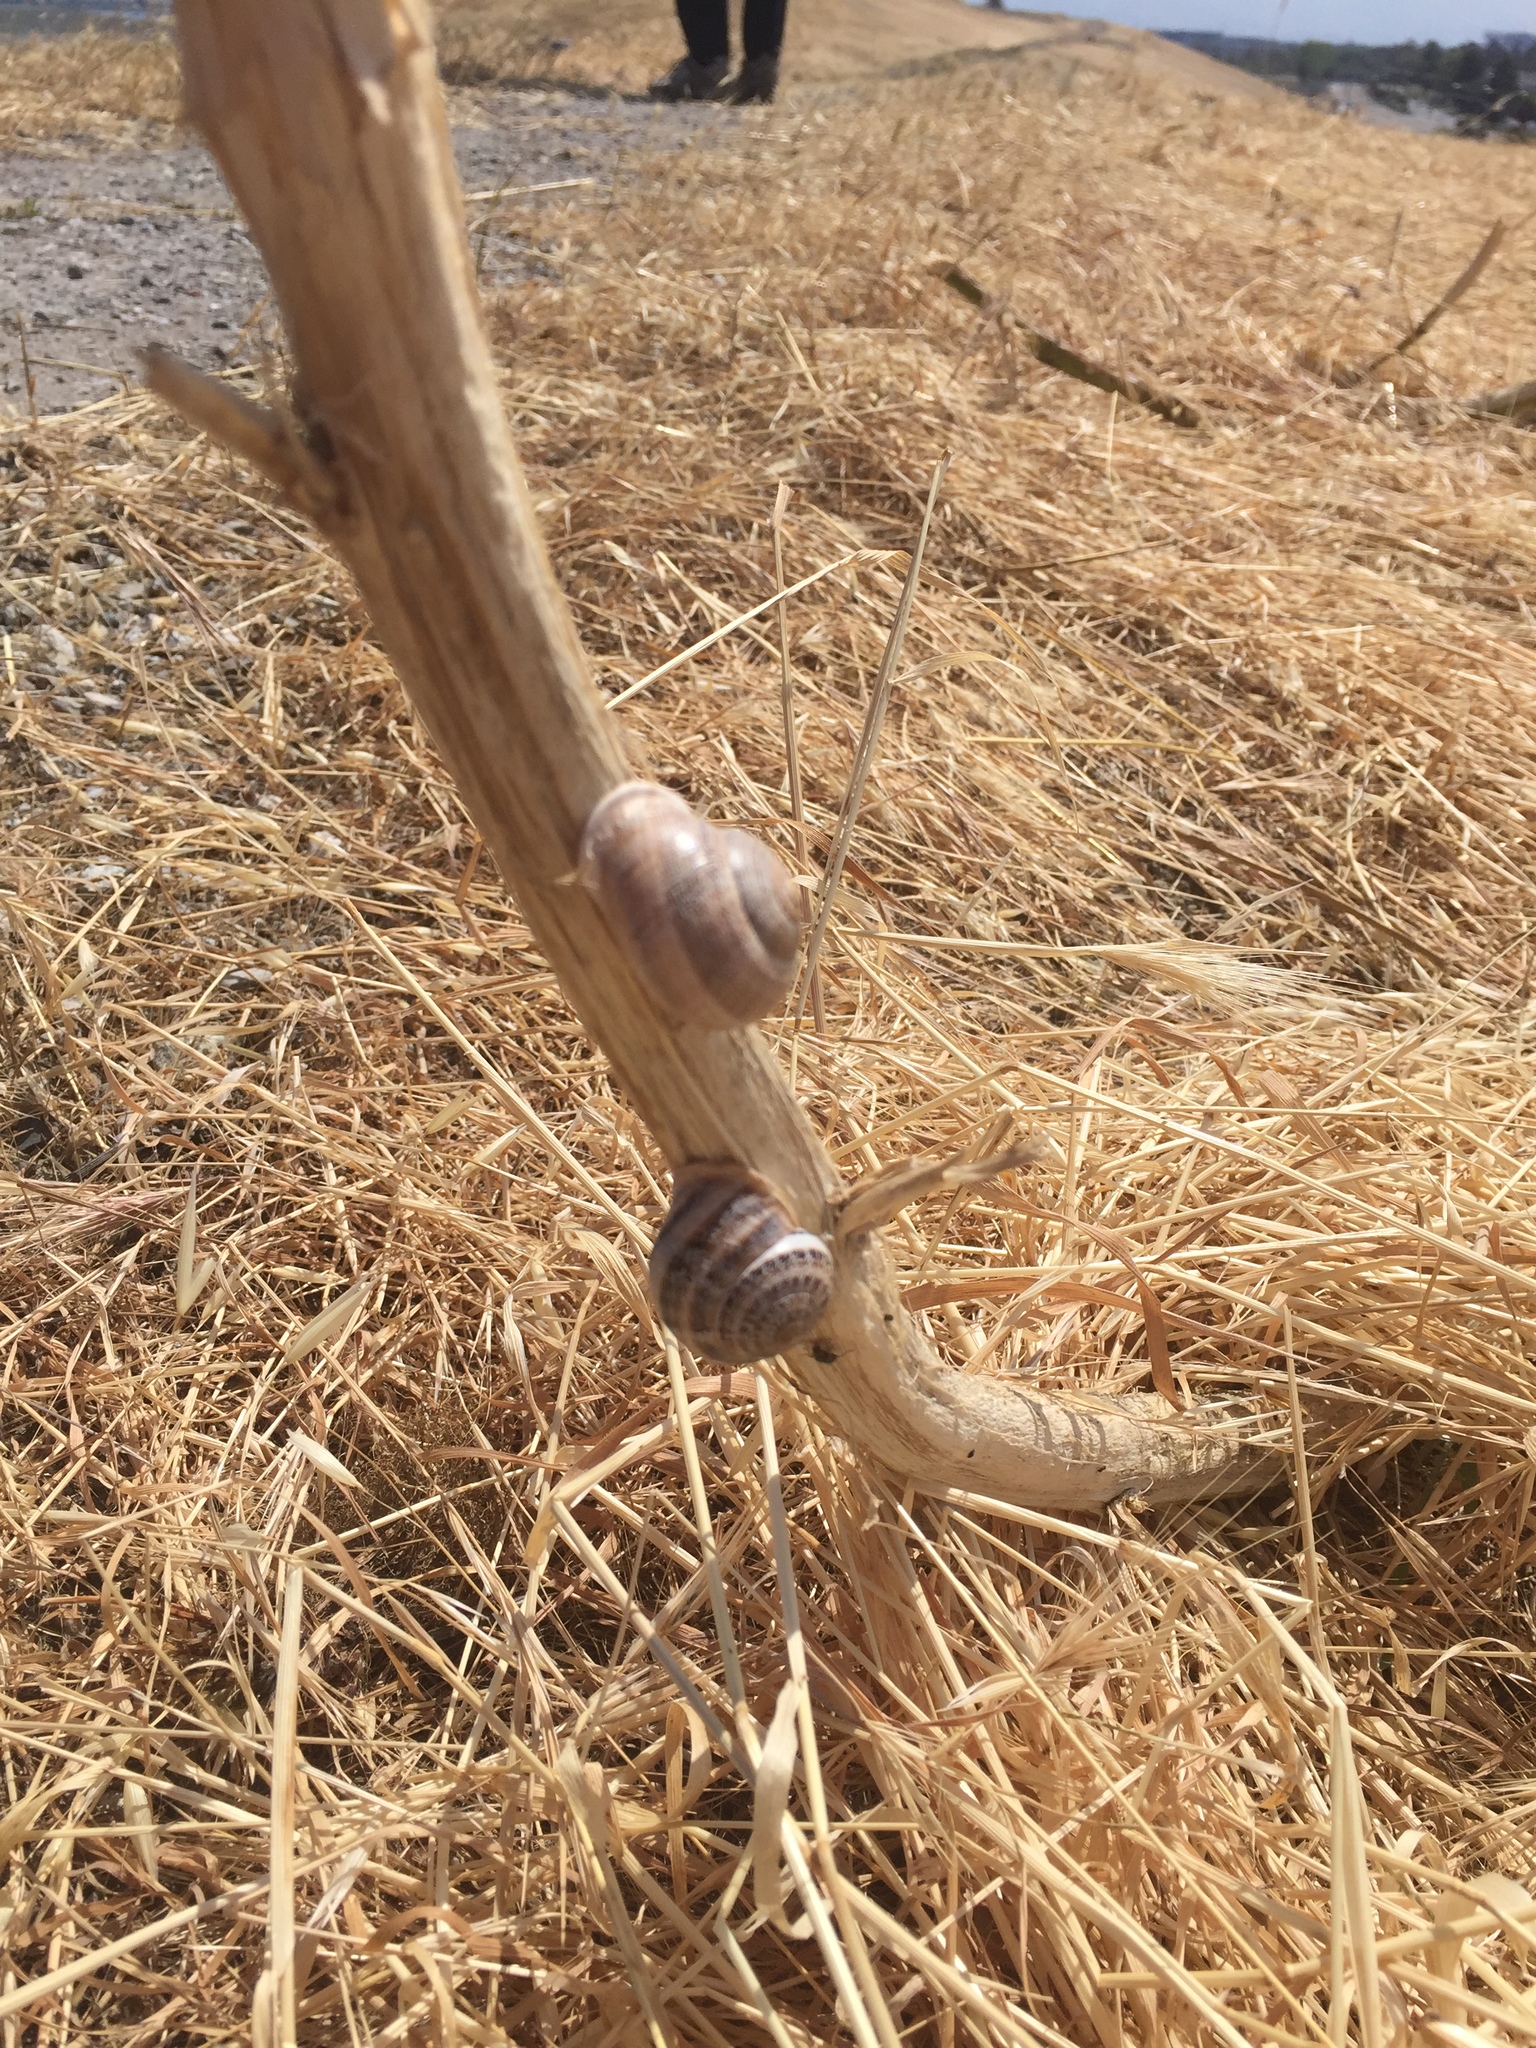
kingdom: Animalia
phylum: Mollusca
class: Gastropoda
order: Stylommatophora
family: Helicidae
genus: Otala
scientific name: Otala lactea
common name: Milk snail
